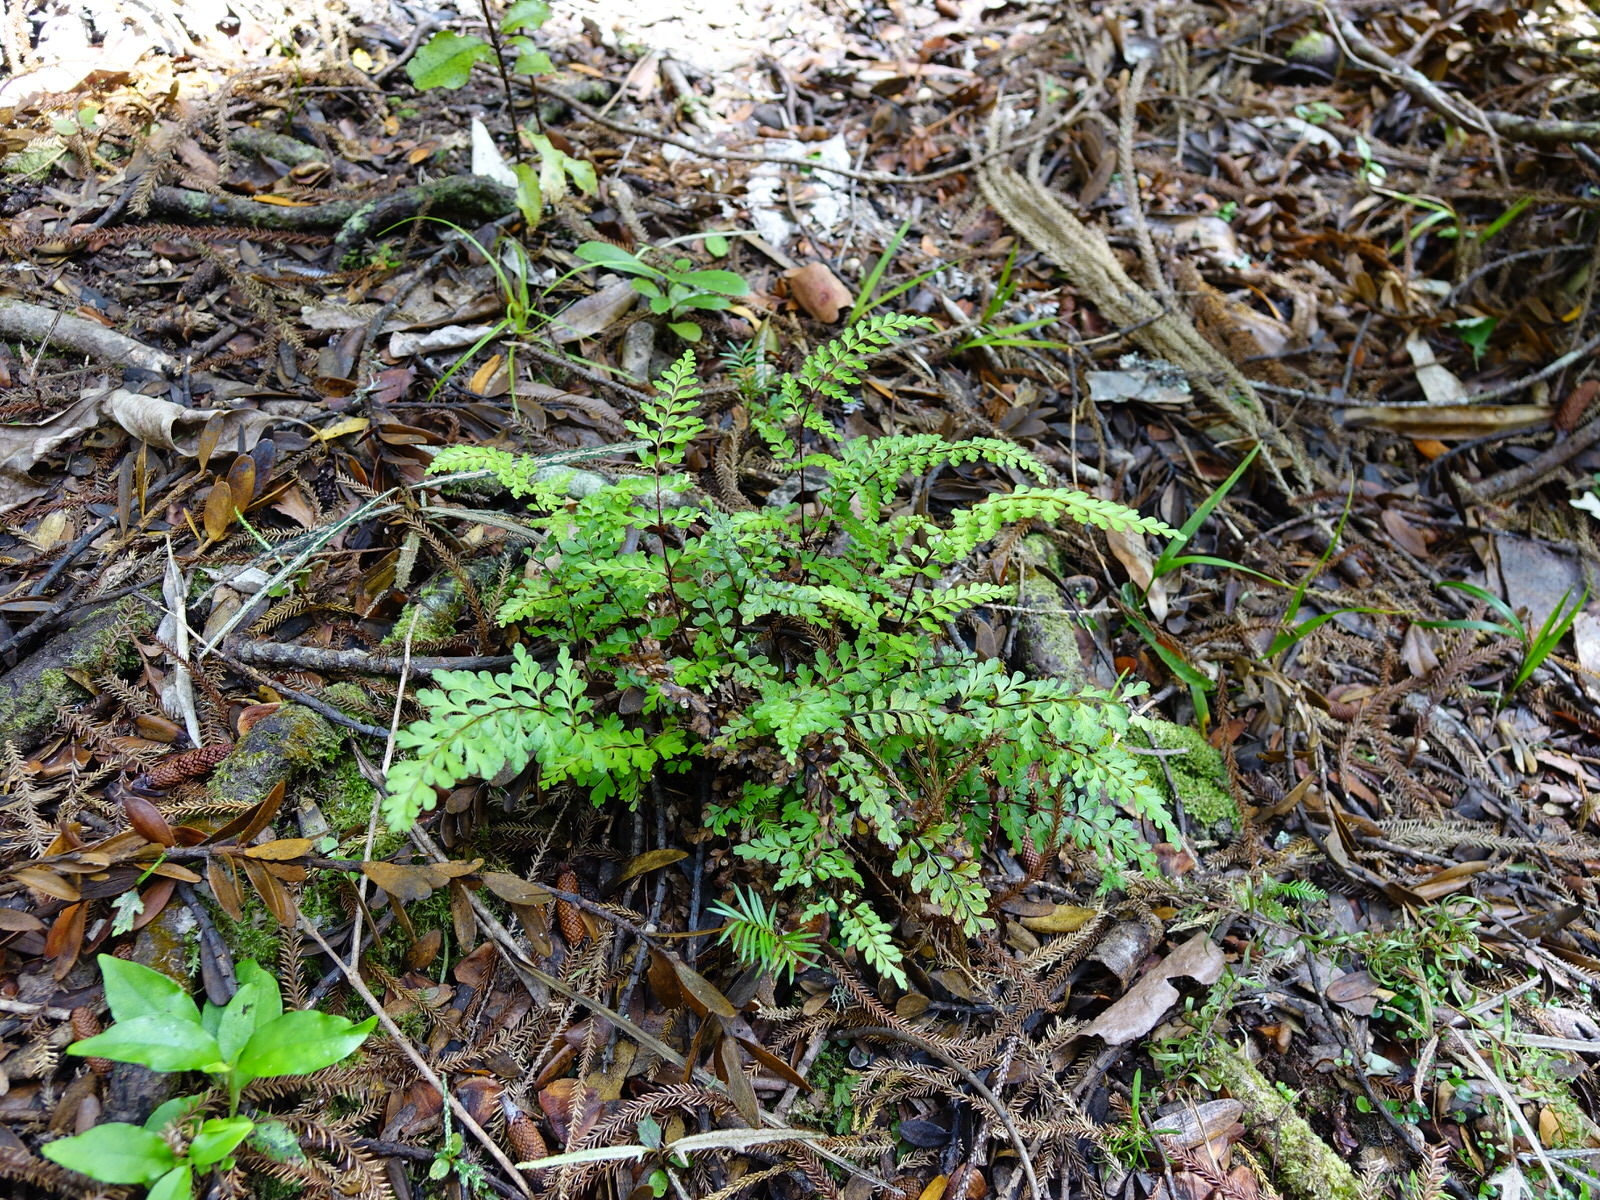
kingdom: Plantae
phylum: Tracheophyta
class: Polypodiopsida
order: Polypodiales
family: Lindsaeaceae
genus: Lindsaea
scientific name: Lindsaea trichomanoides
